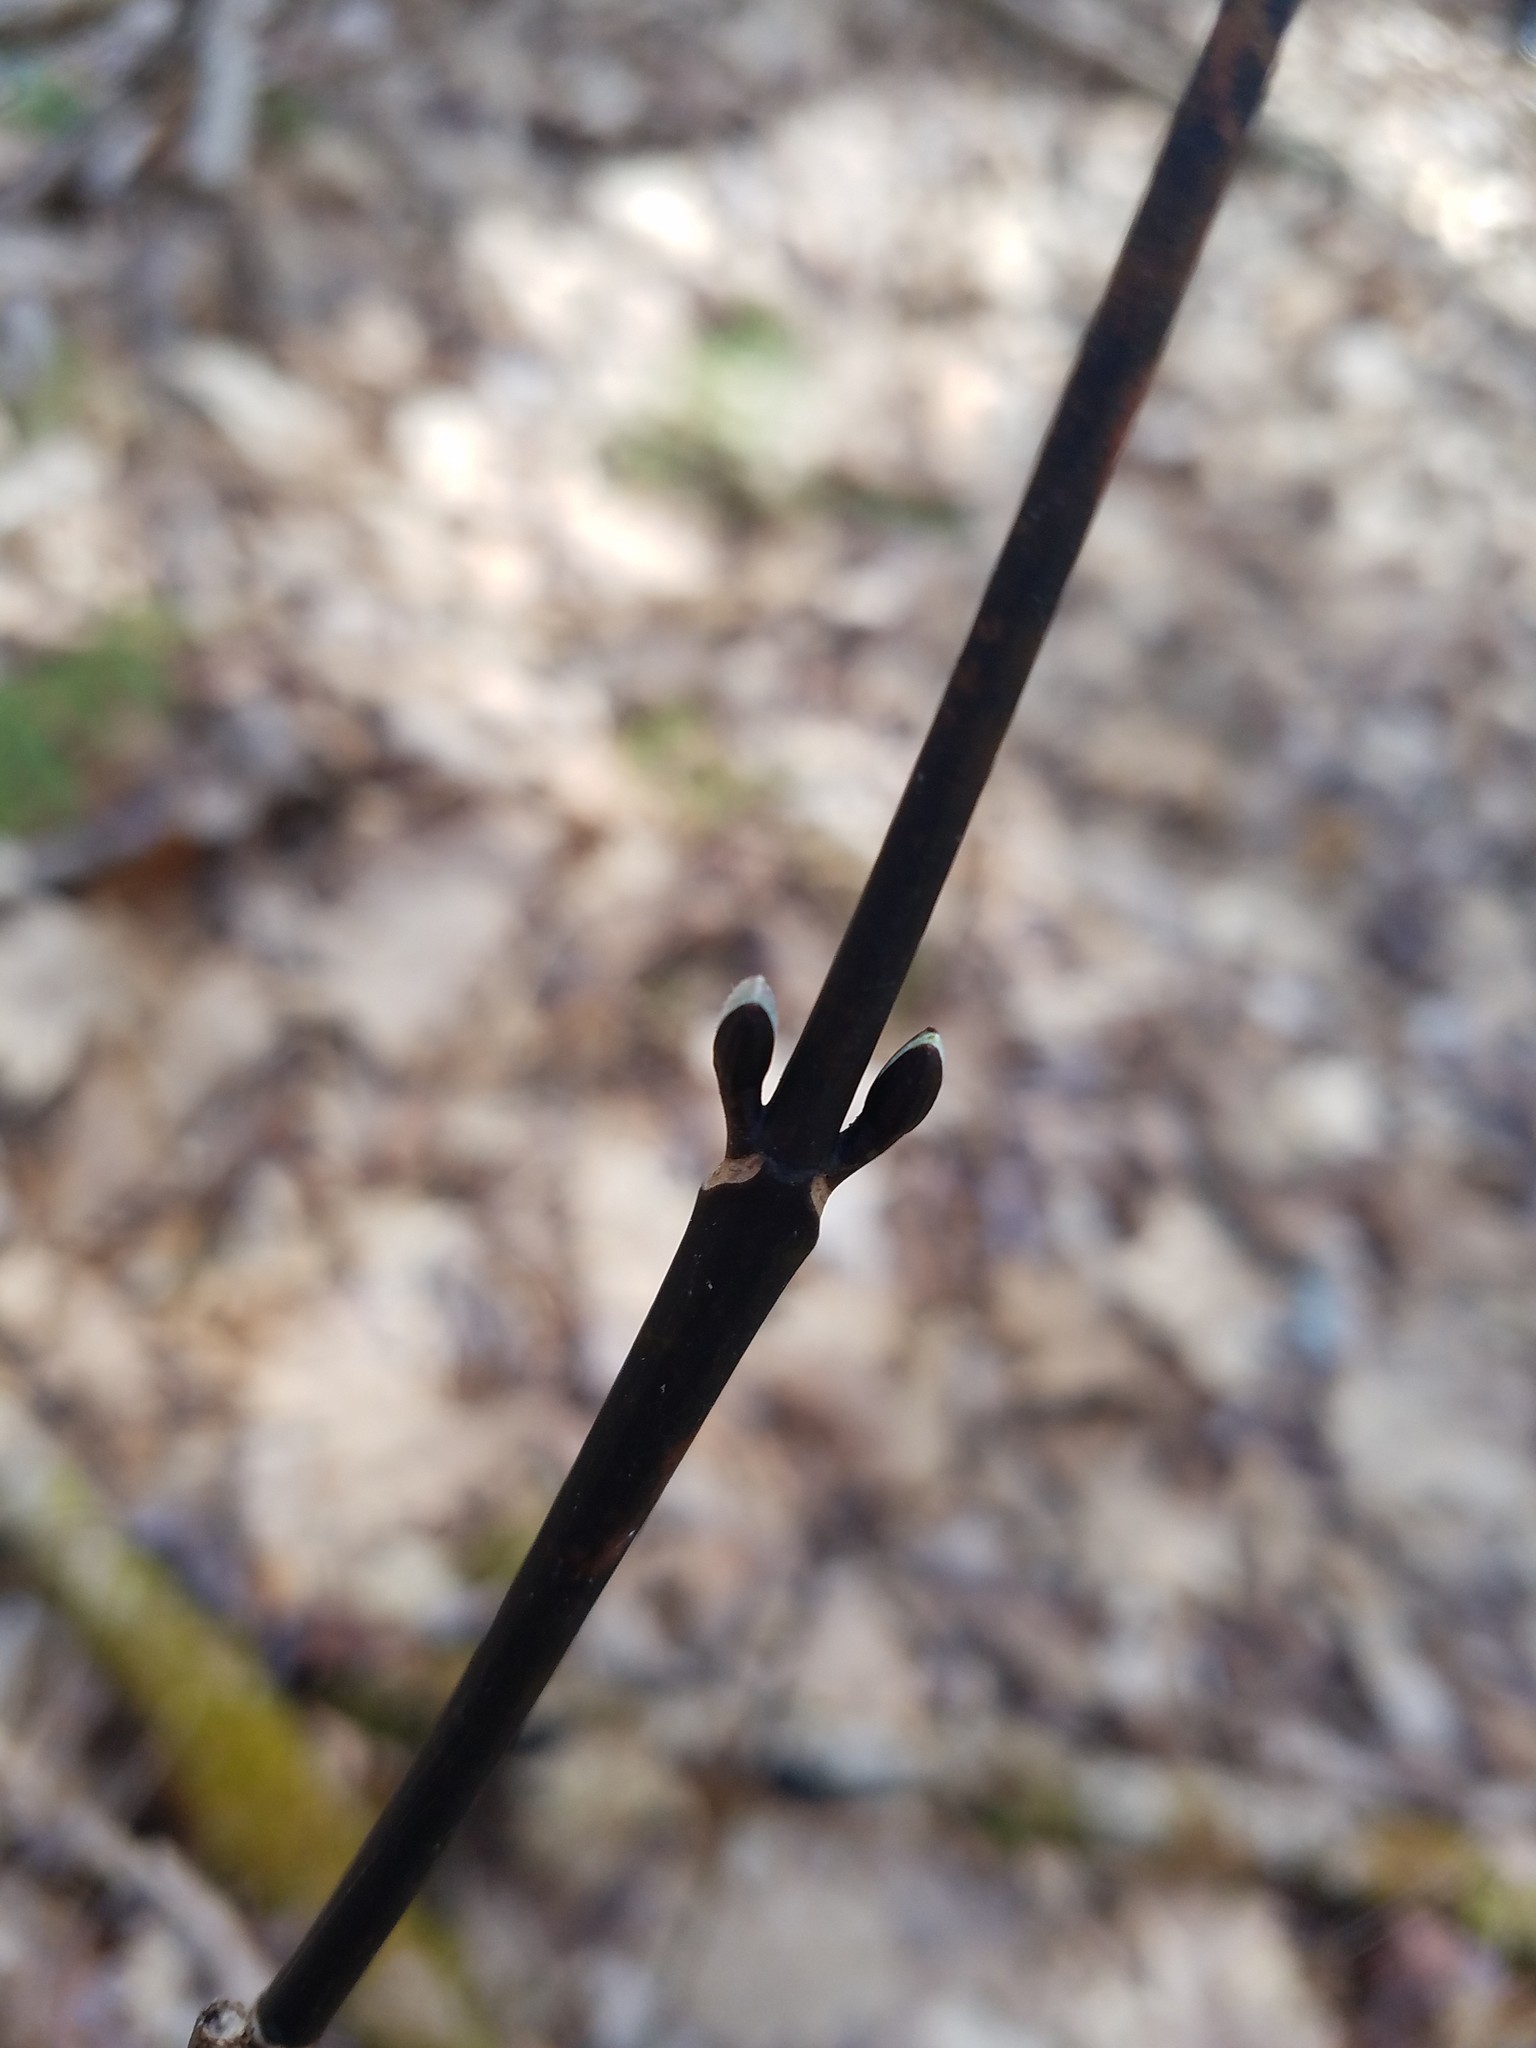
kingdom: Plantae
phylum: Tracheophyta
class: Magnoliopsida
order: Sapindales
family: Sapindaceae
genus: Acer
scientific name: Acer pensylvanicum
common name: Moosewood
